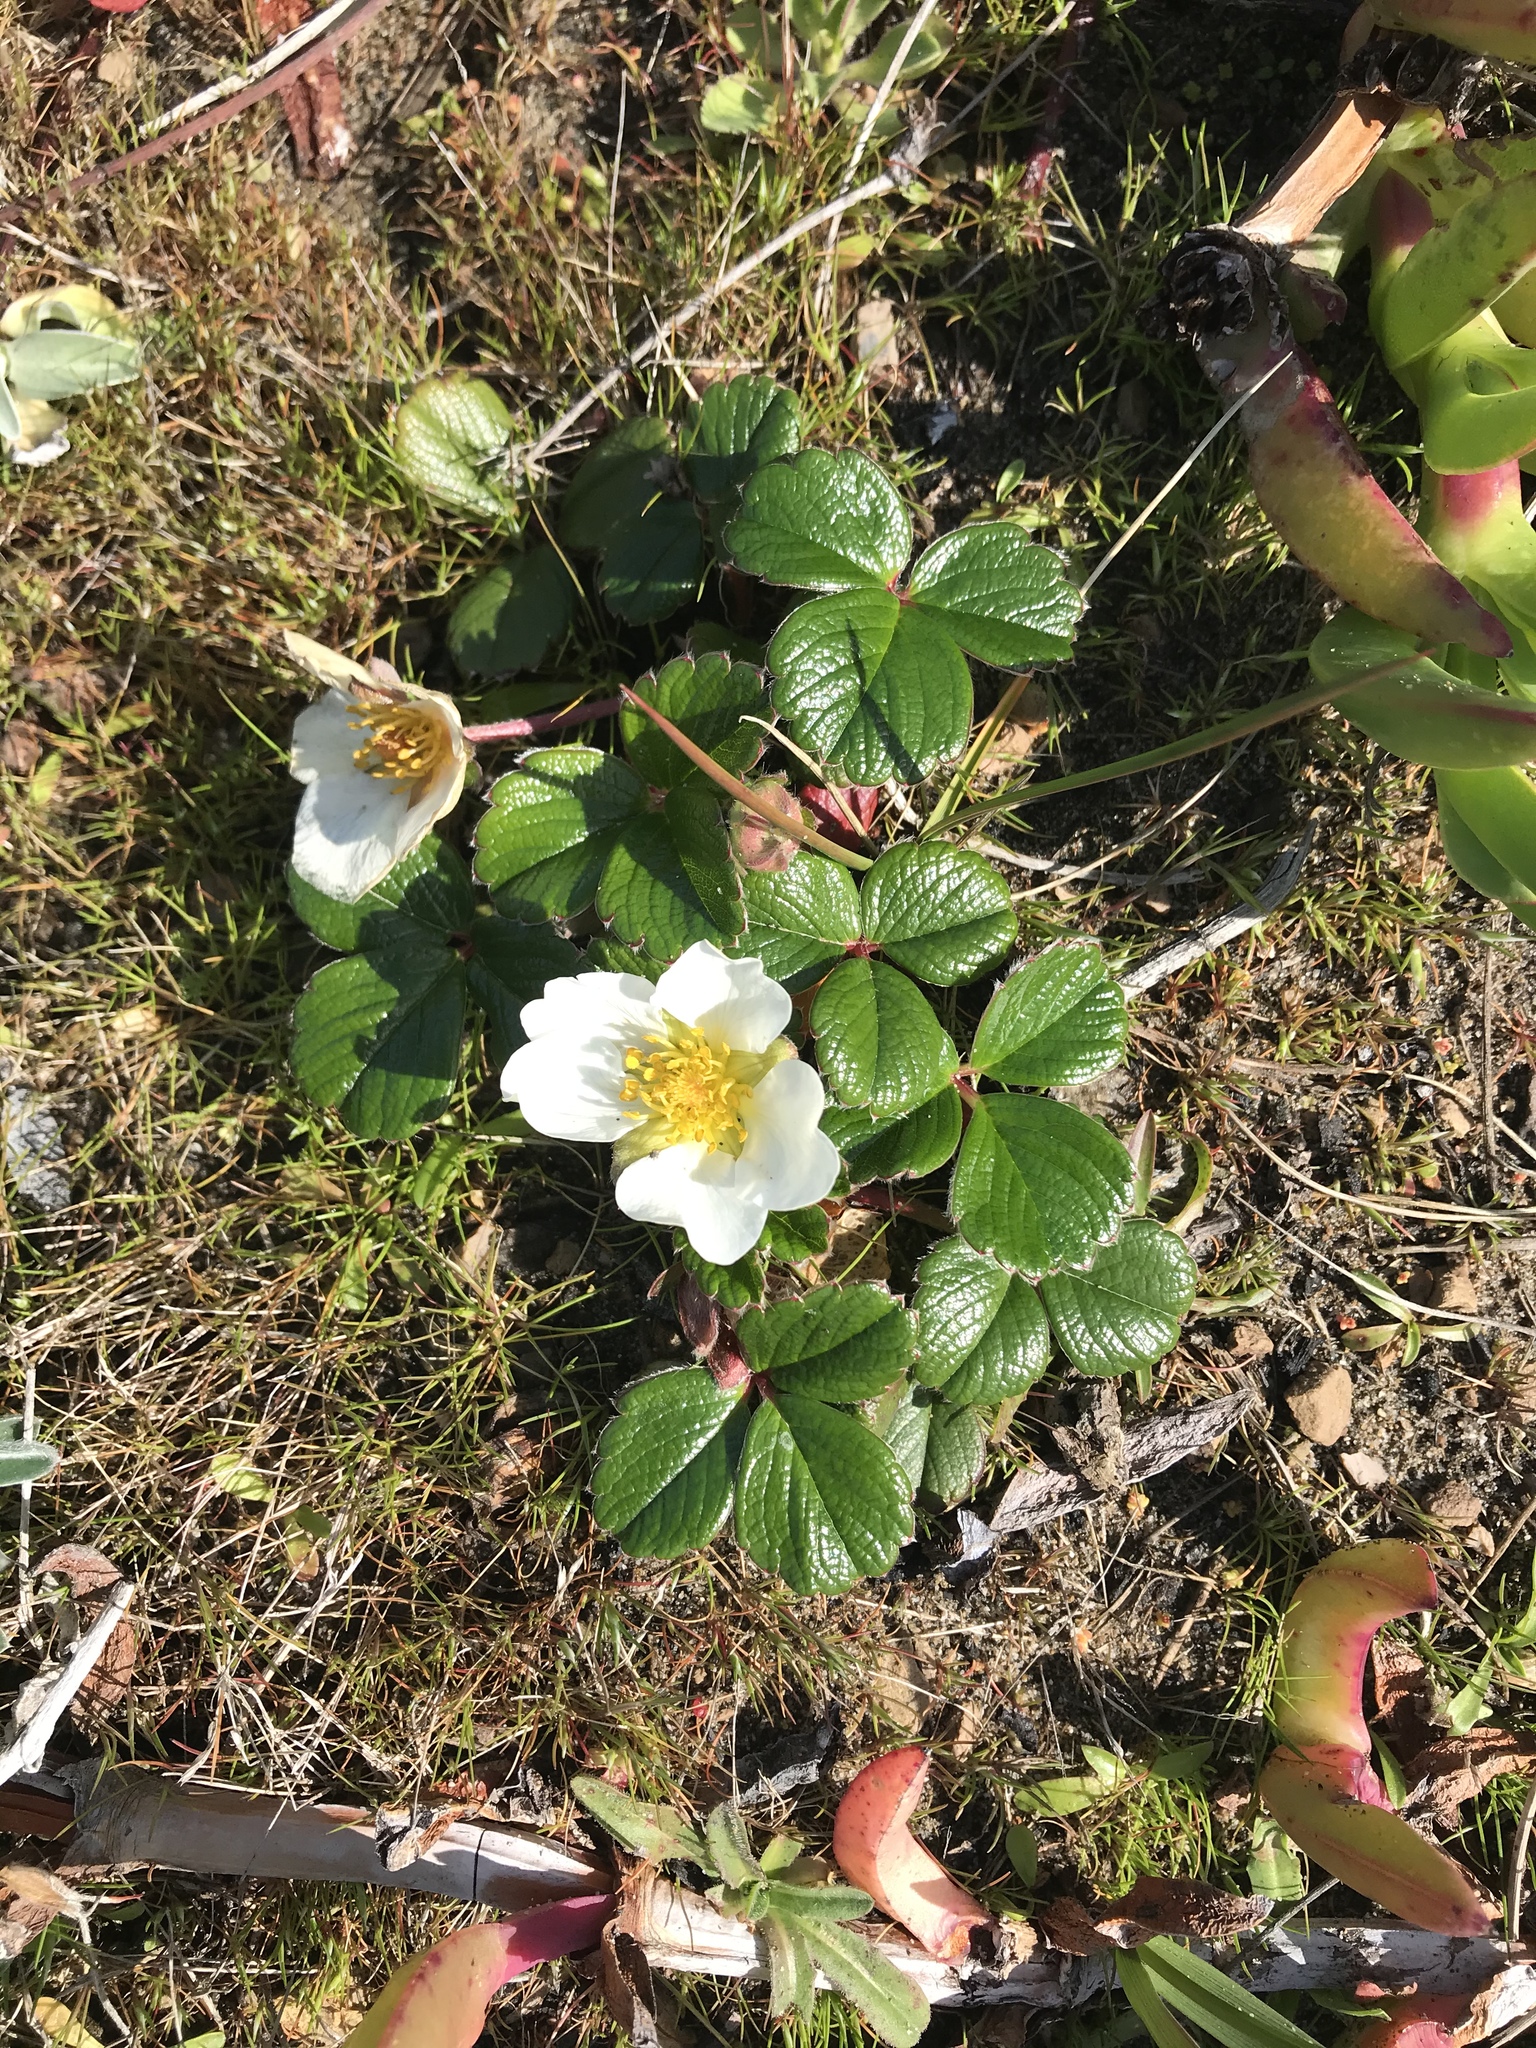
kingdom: Plantae
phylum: Tracheophyta
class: Magnoliopsida
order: Rosales
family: Rosaceae
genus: Fragaria
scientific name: Fragaria chiloensis
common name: Beach strawberry
